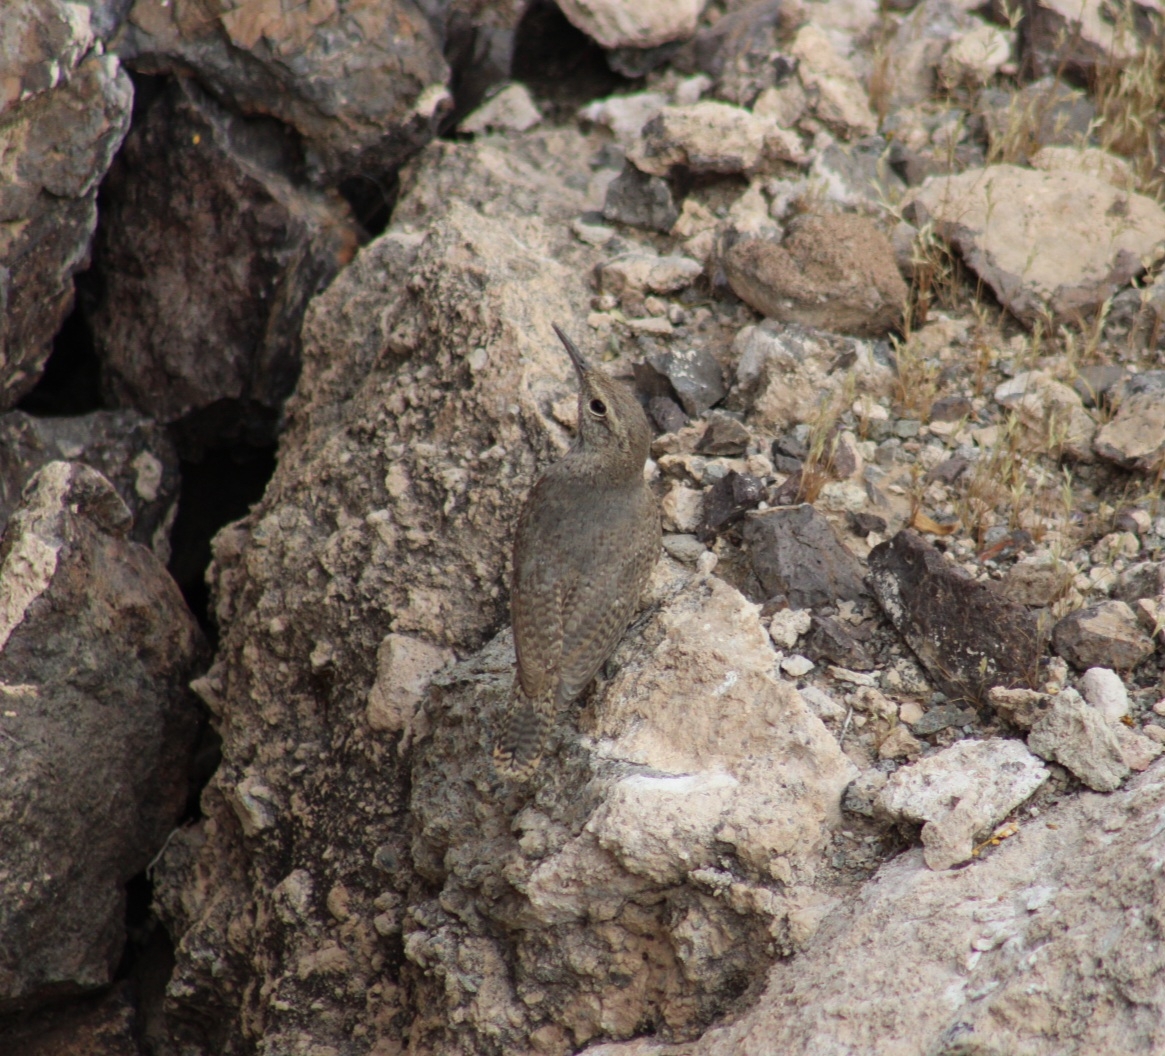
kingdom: Animalia
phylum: Chordata
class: Aves
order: Passeriformes
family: Troglodytidae
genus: Salpinctes
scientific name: Salpinctes obsoletus
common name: Rock wren
